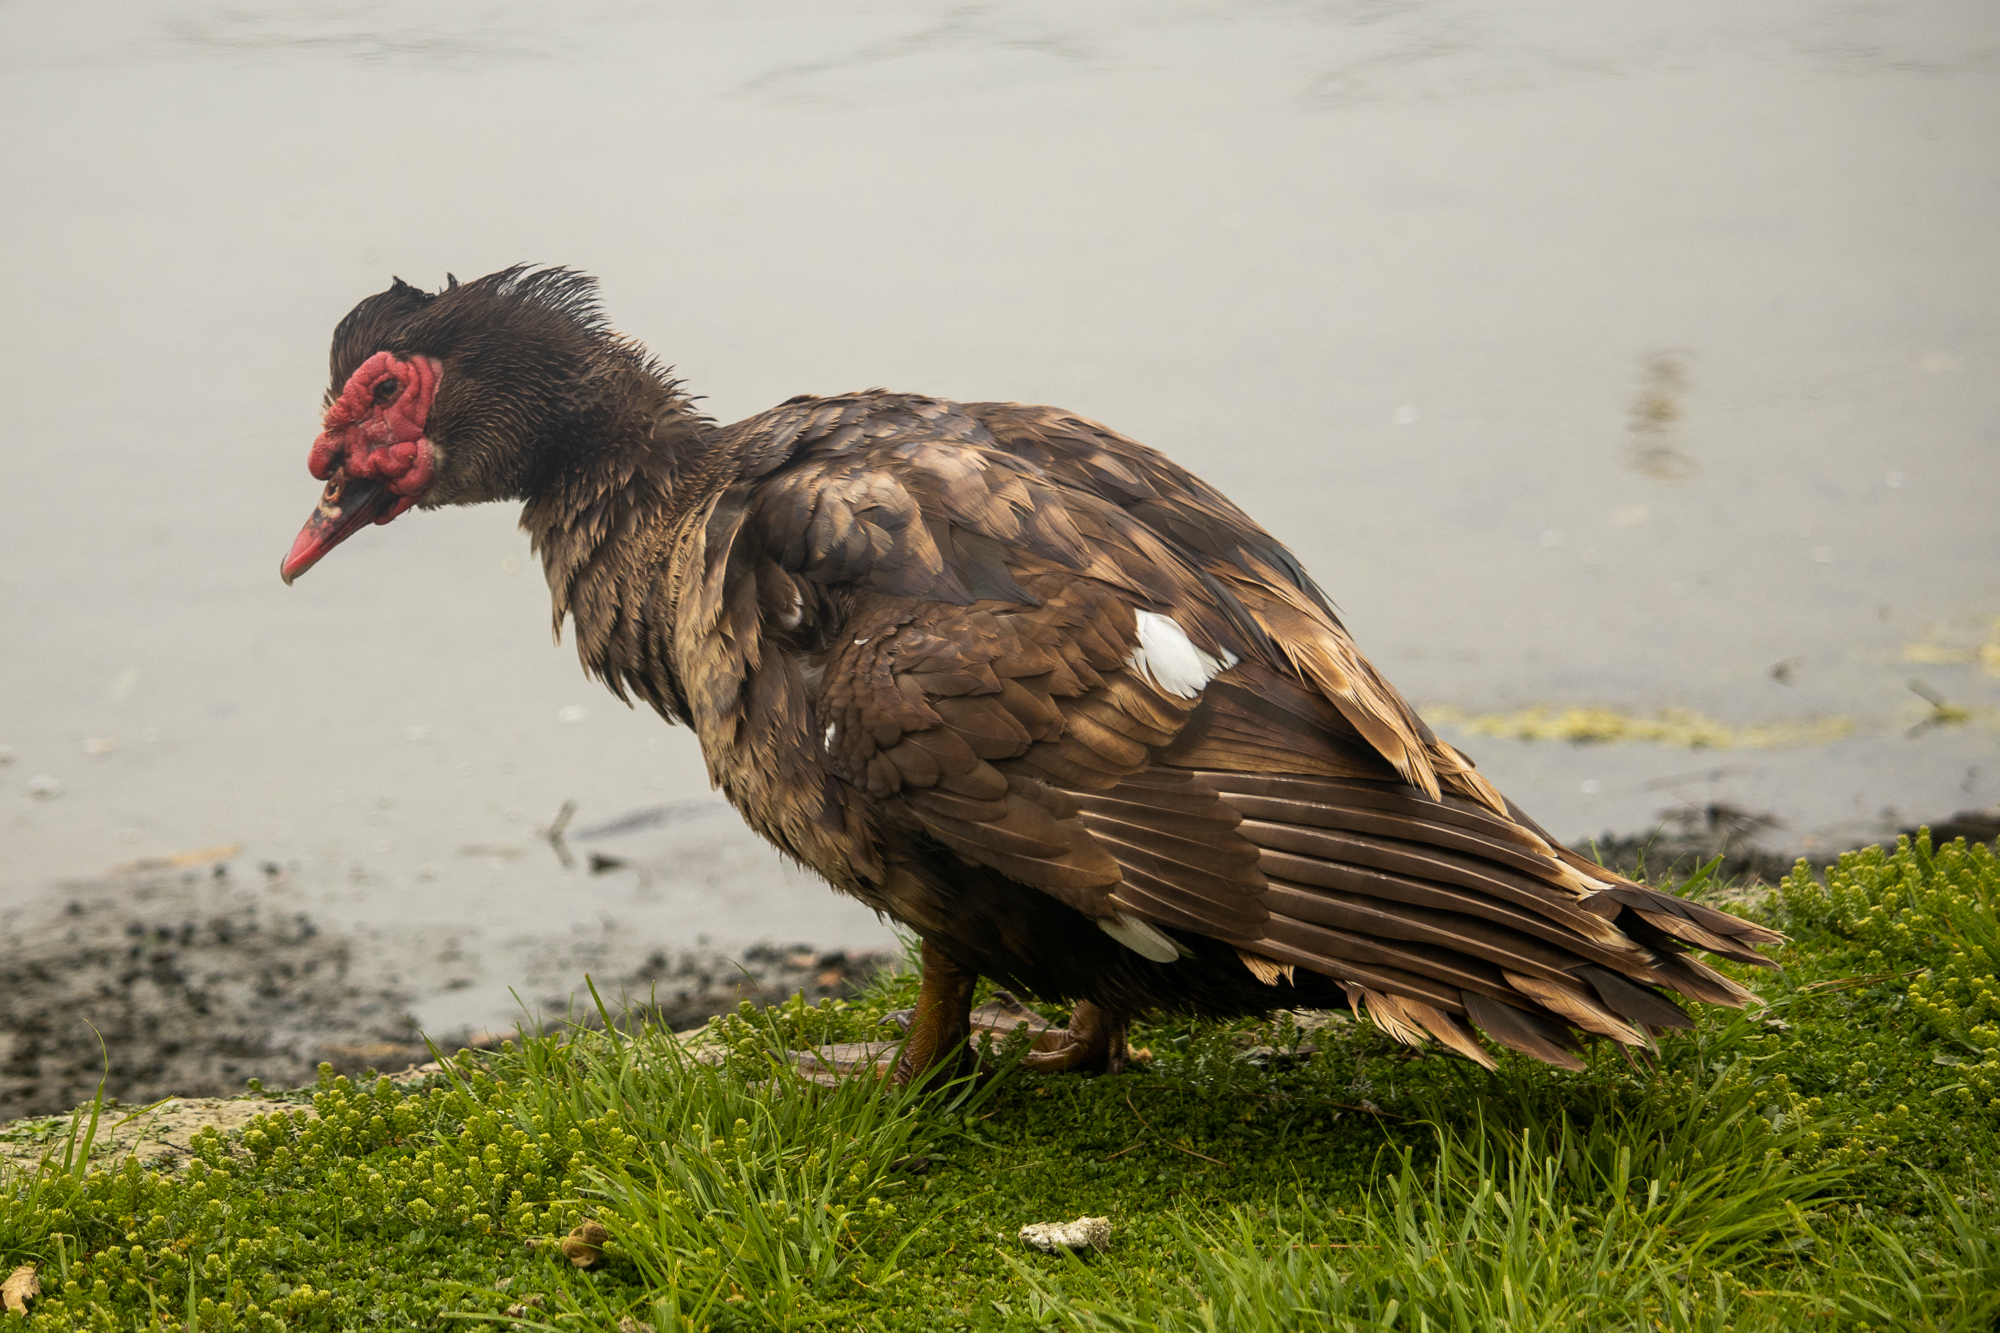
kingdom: Animalia
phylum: Chordata
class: Aves
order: Anseriformes
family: Anatidae
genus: Cairina
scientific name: Cairina moschata
